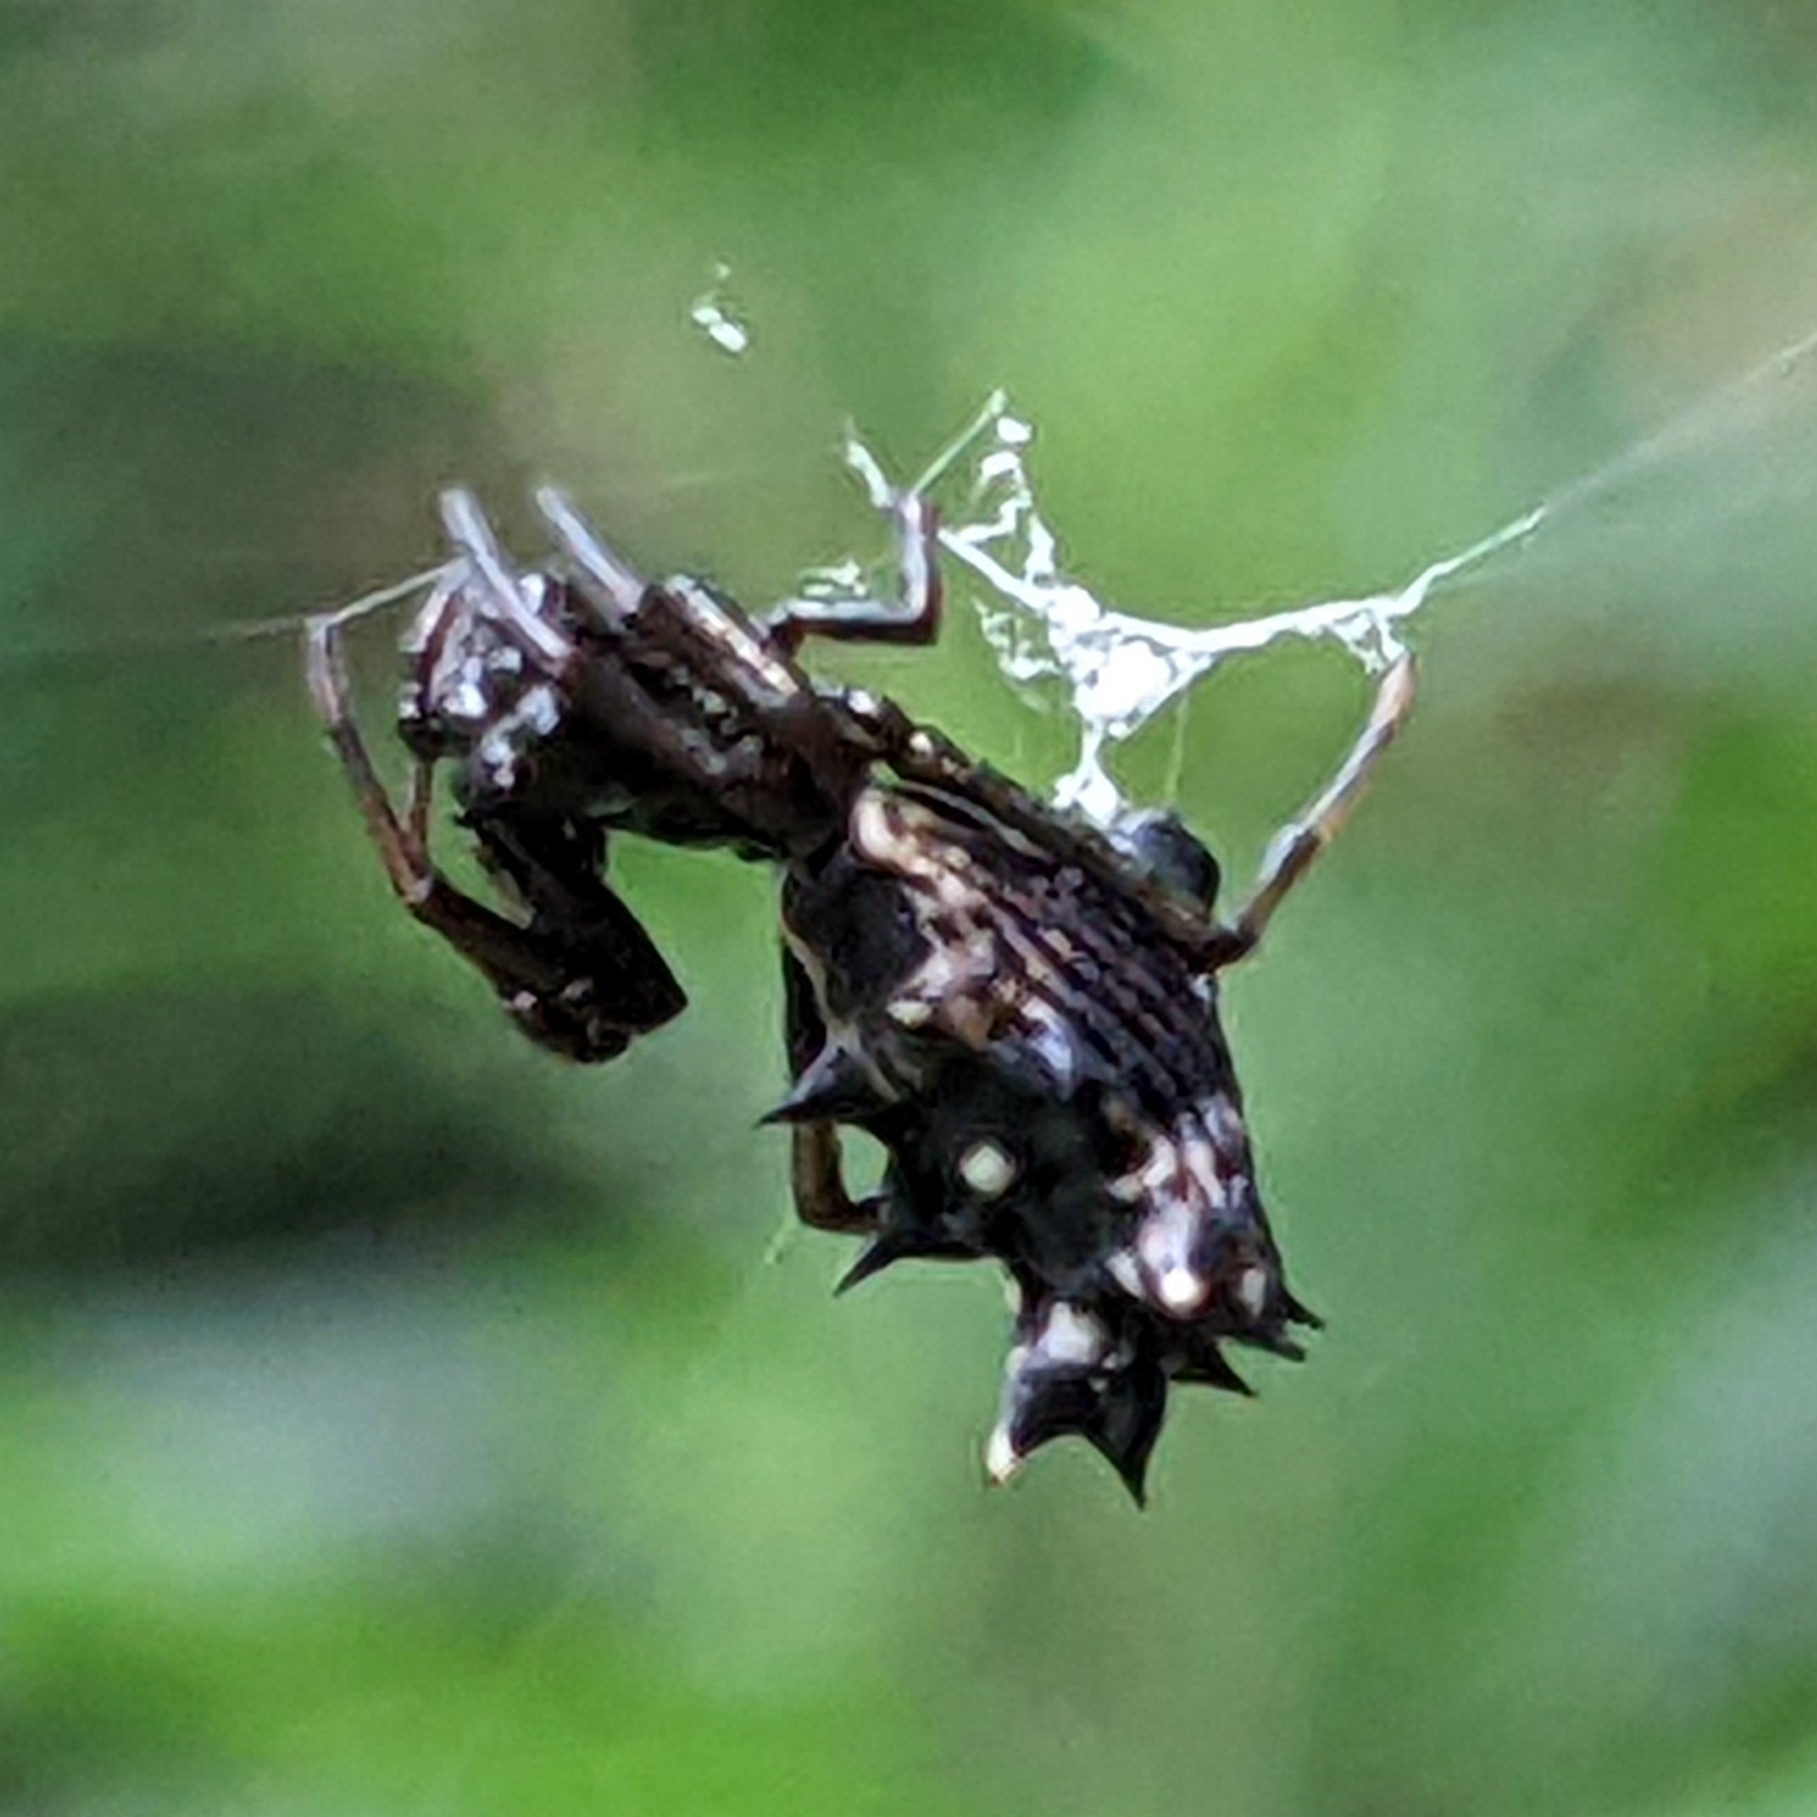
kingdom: Animalia
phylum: Arthropoda
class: Arachnida
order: Araneae
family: Araneidae
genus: Micrathena
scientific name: Micrathena gracilis
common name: Orb weavers
